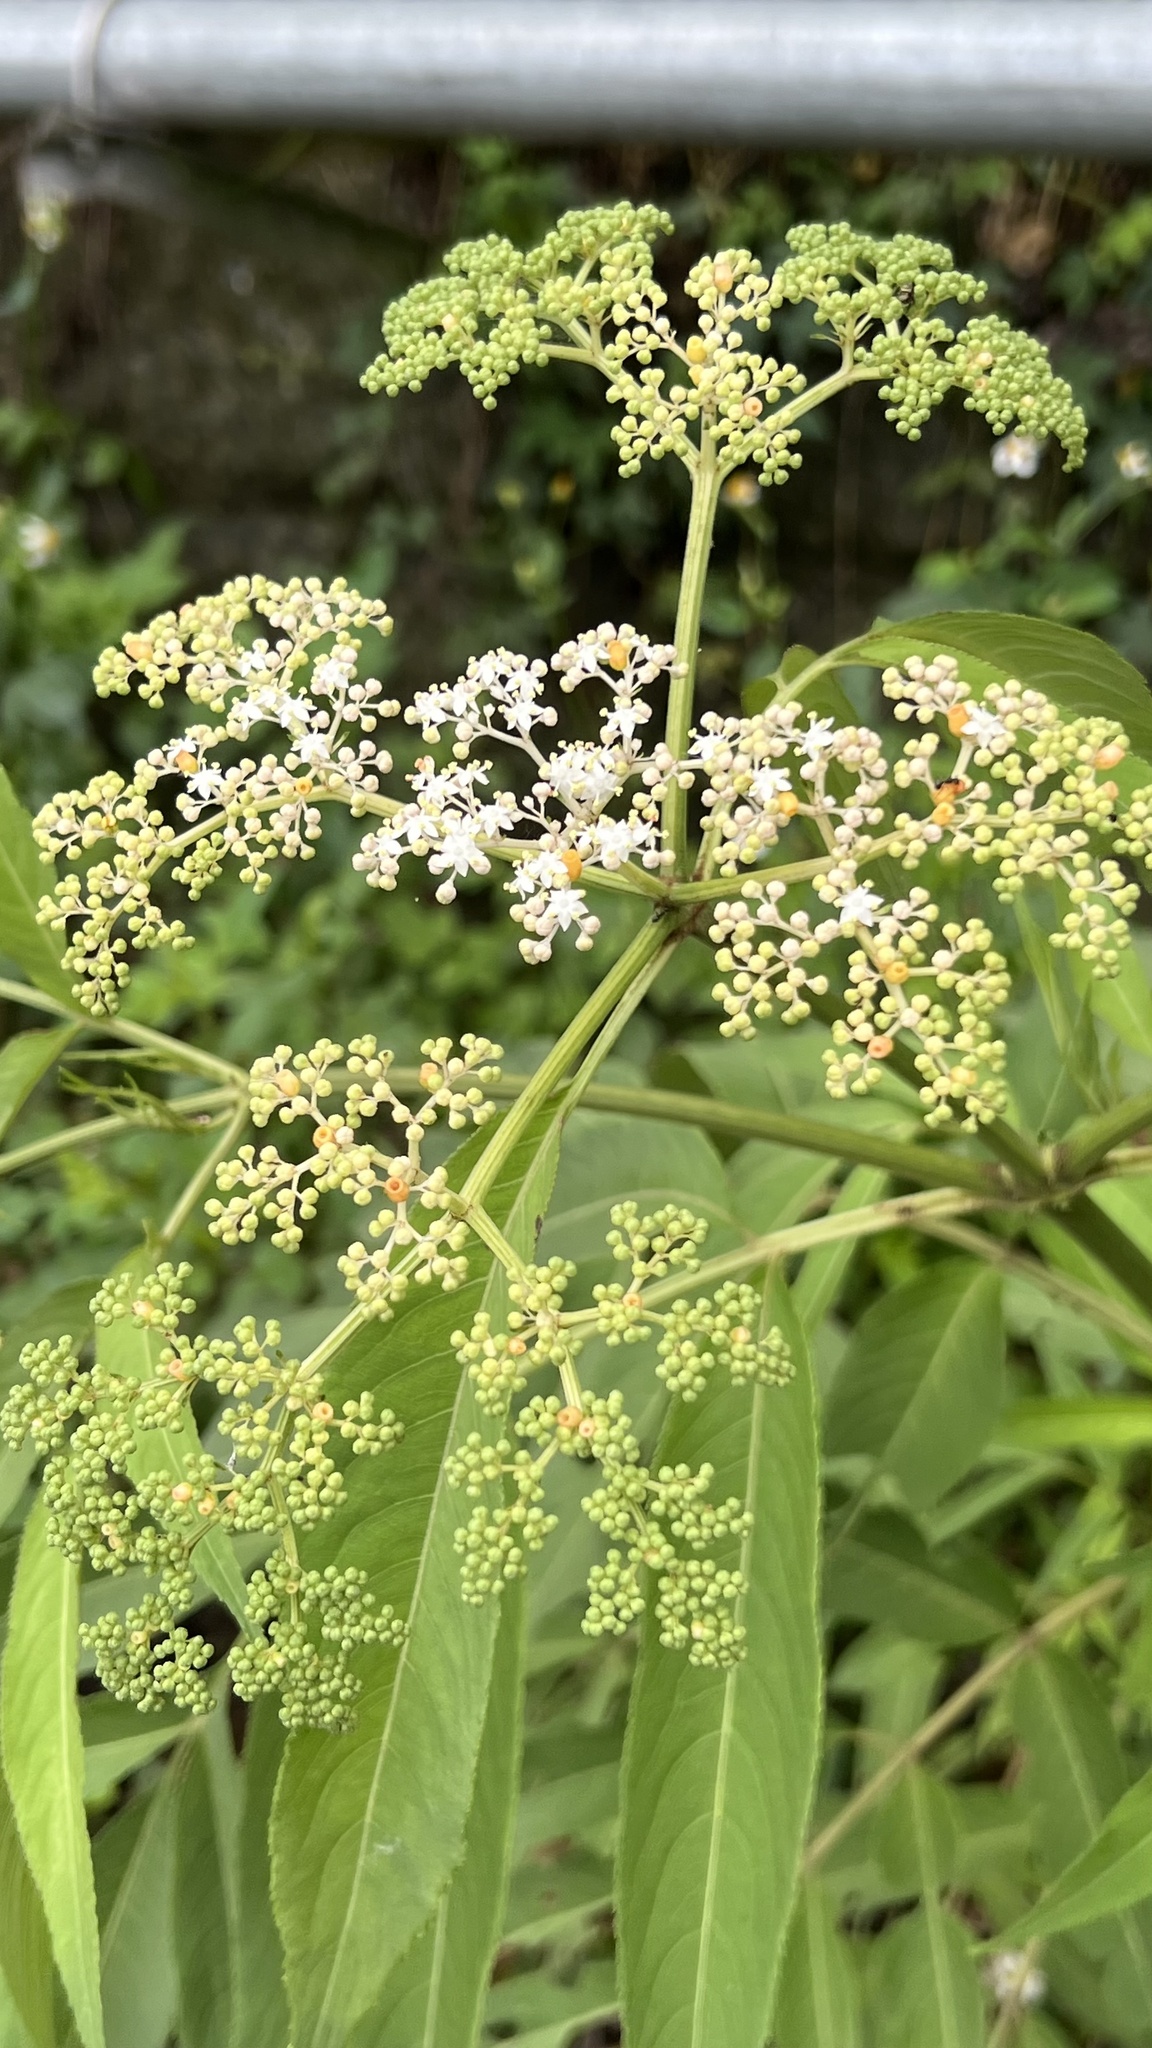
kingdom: Plantae
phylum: Tracheophyta
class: Magnoliopsida
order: Dipsacales
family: Viburnaceae
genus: Sambucus
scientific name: Sambucus javanica
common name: Chinese elder
